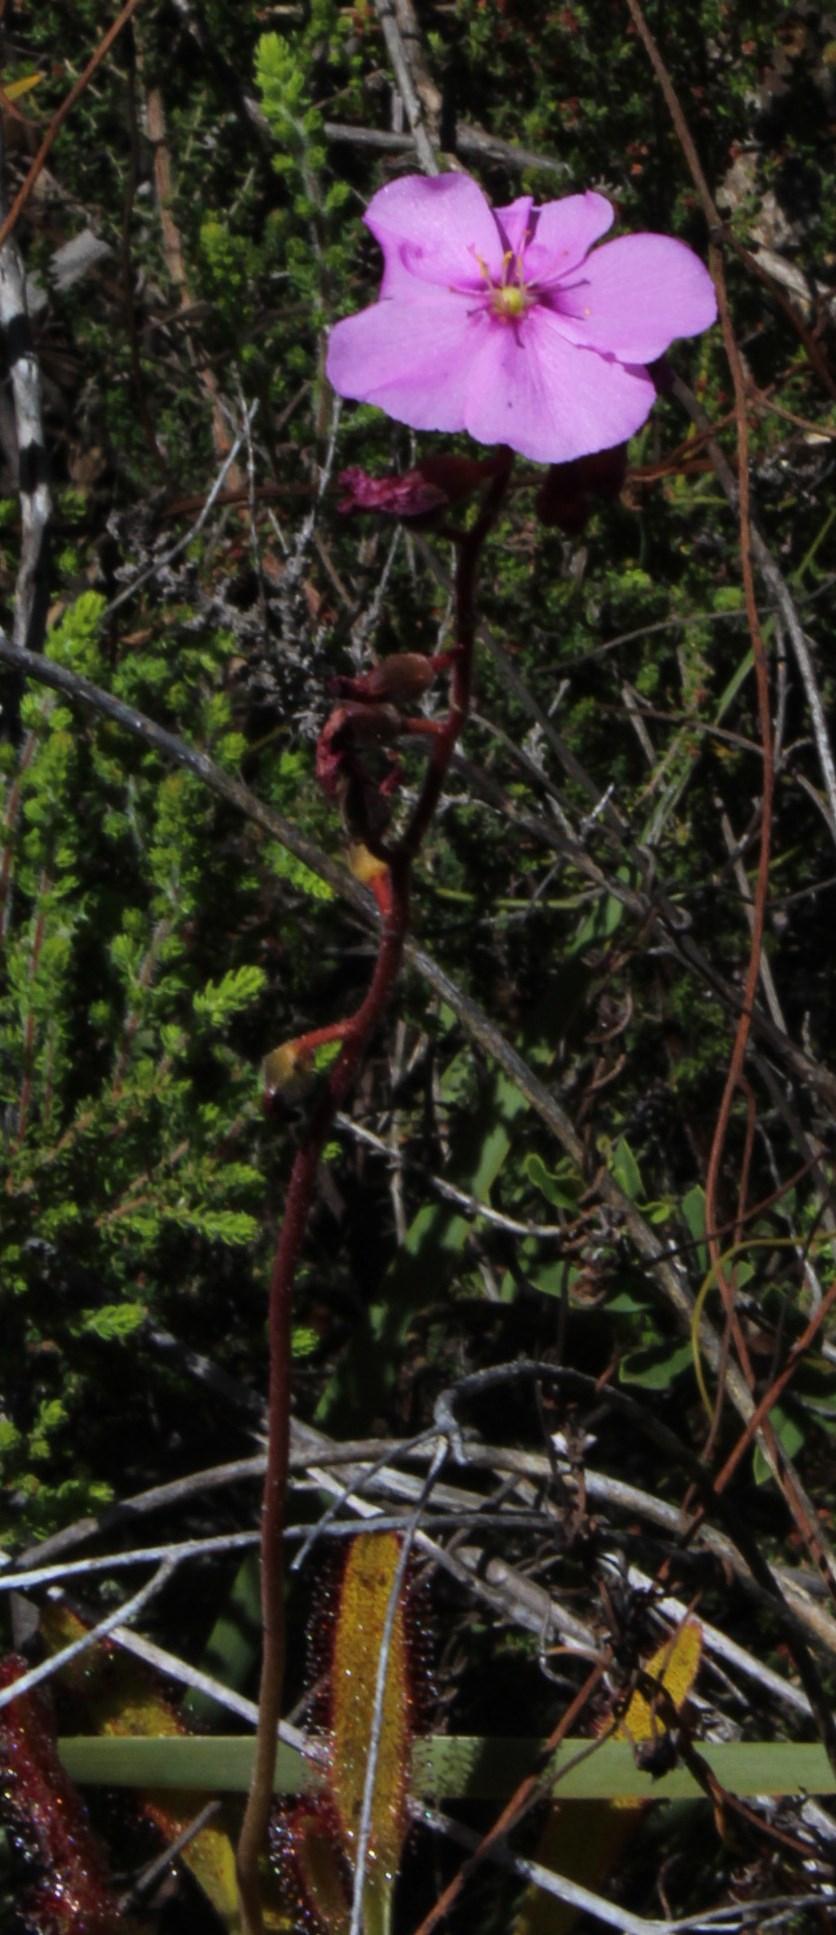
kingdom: Plantae
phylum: Tracheophyta
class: Magnoliopsida
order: Caryophyllales
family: Droseraceae
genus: Drosera
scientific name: Drosera hilaris
